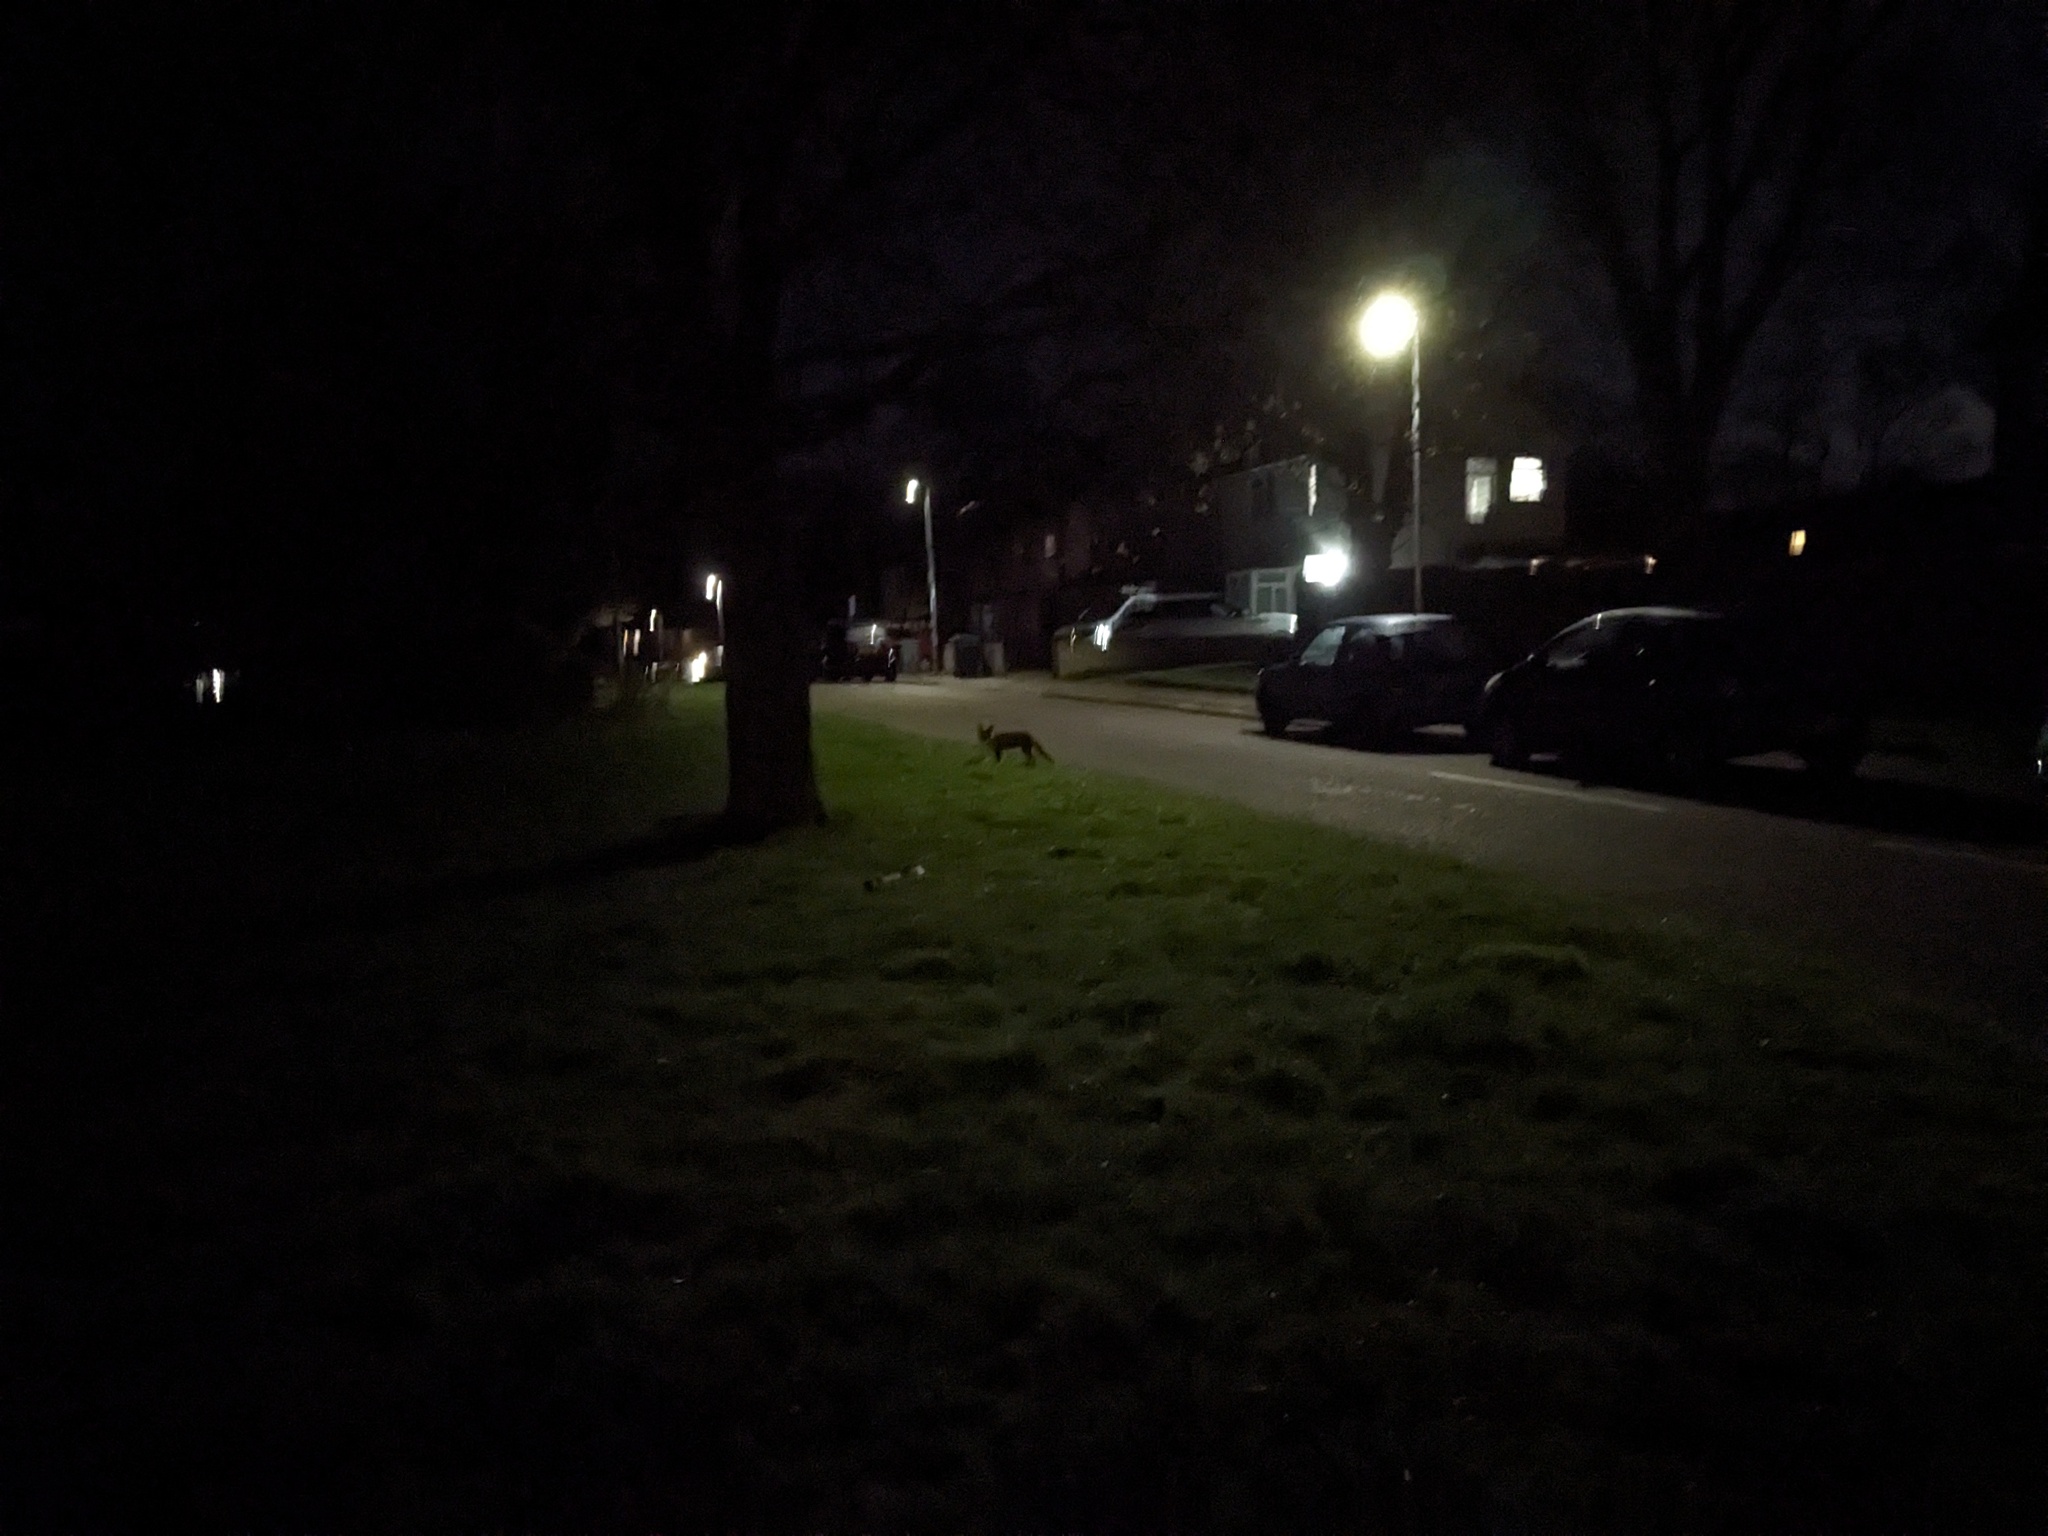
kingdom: Animalia
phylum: Chordata
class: Mammalia
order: Carnivora
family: Canidae
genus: Vulpes
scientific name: Vulpes vulpes
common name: Red fox
